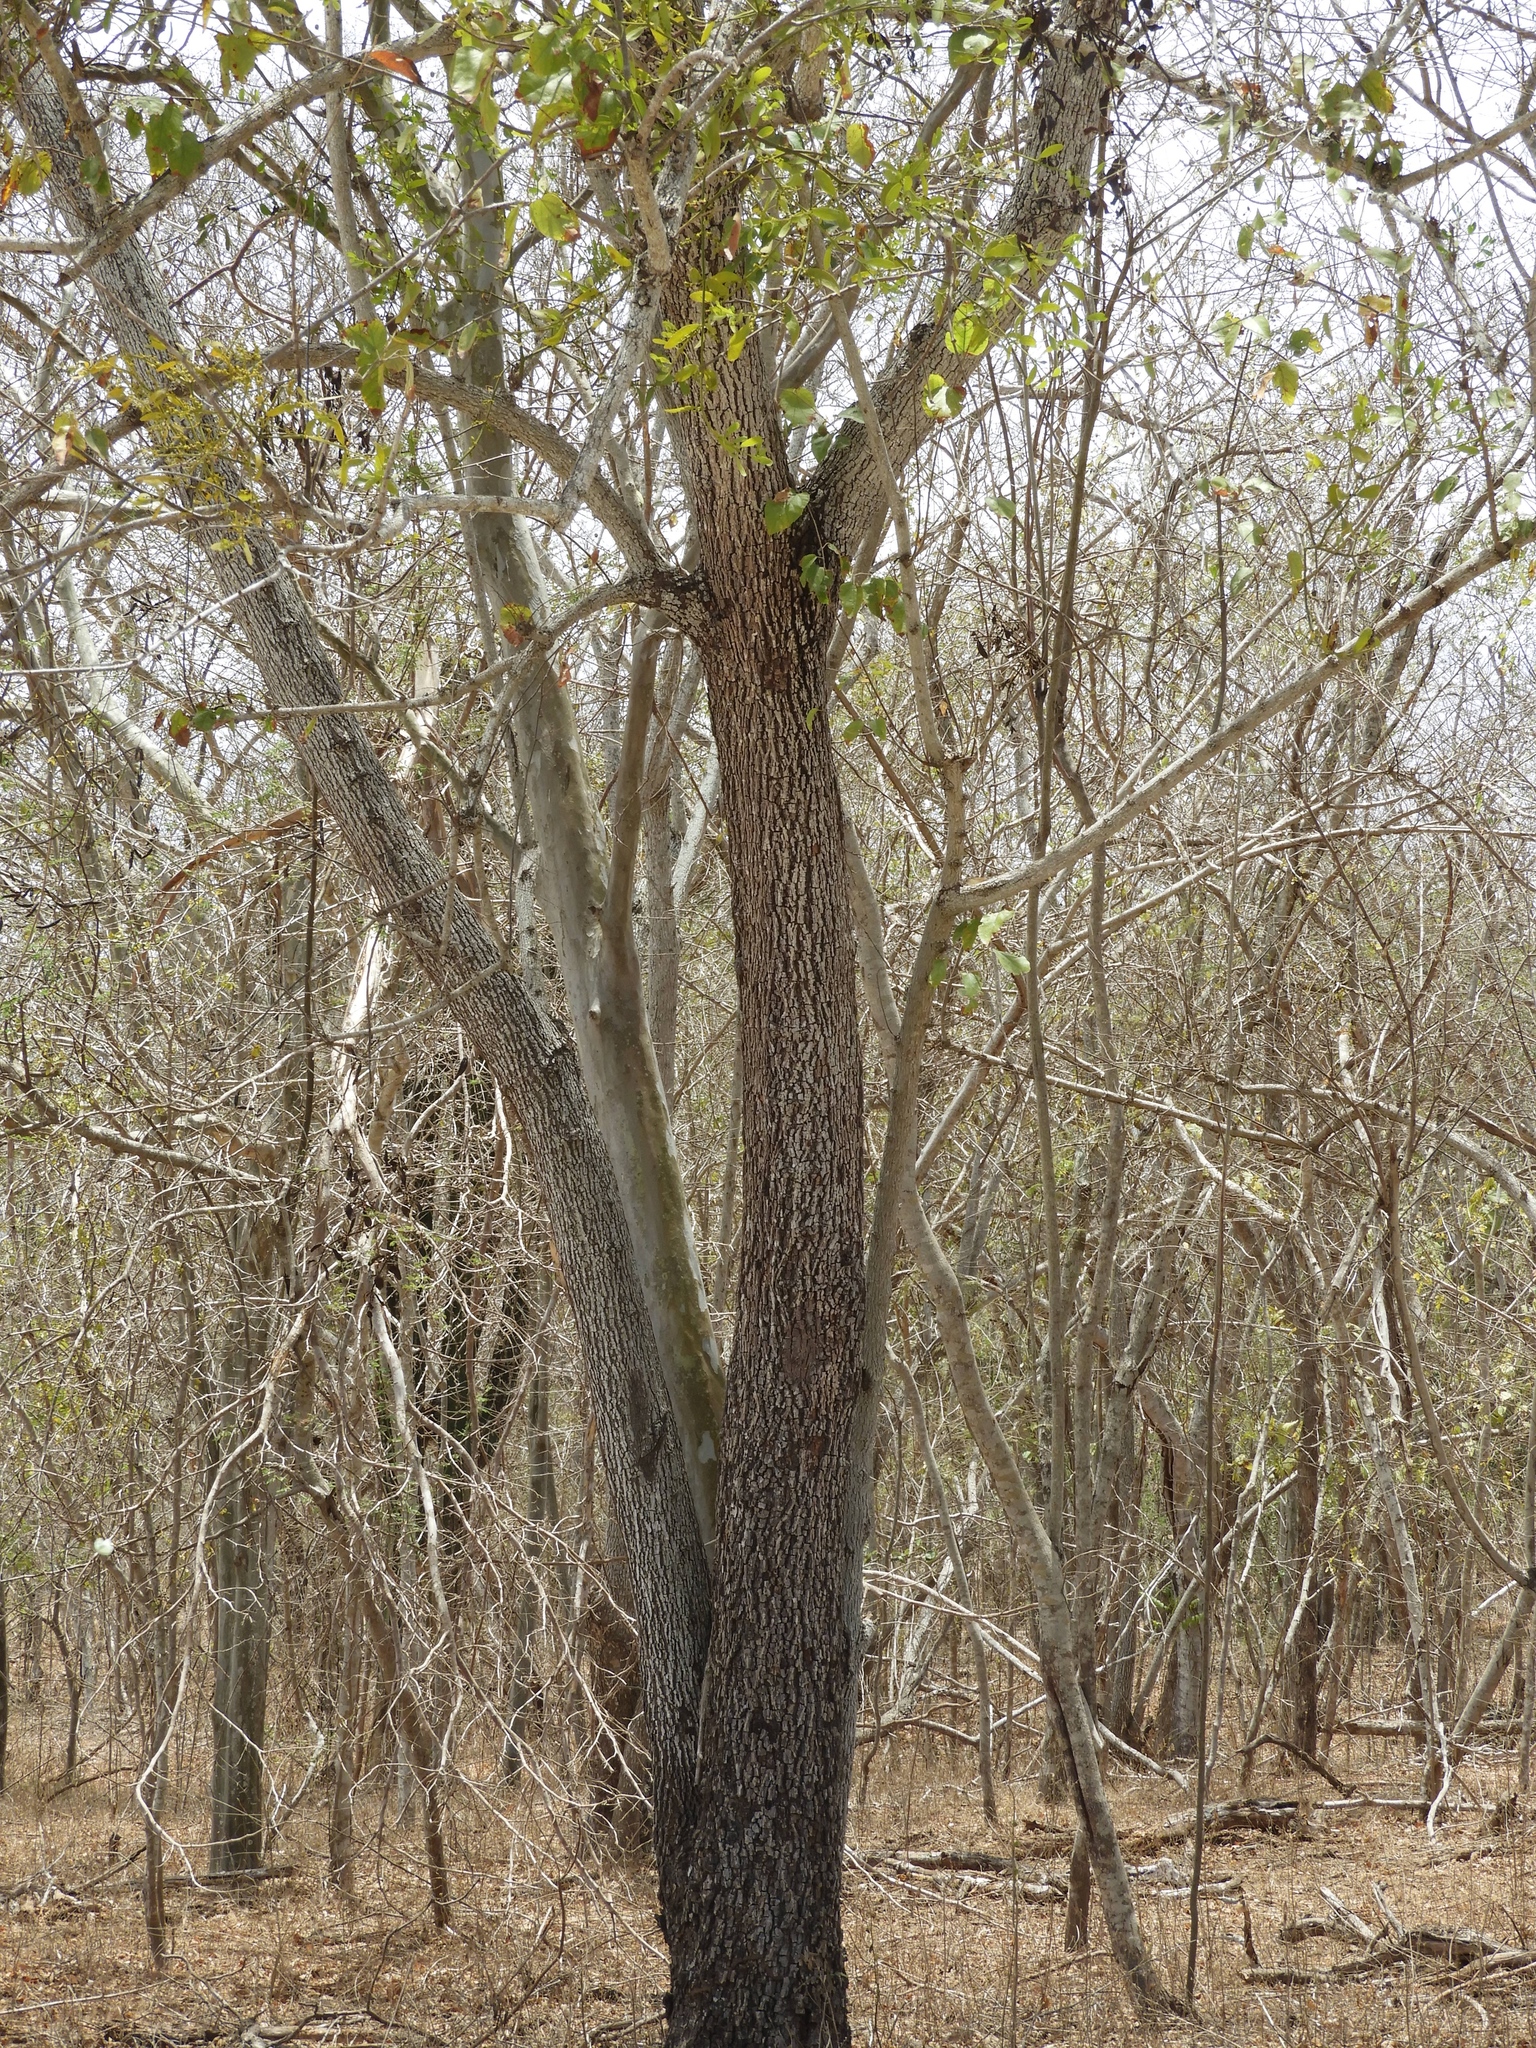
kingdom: Plantae
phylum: Tracheophyta
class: Magnoliopsida
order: Malvales
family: Malvaceae
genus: Guazuma
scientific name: Guazuma ulmifolia
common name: Bastard-cedar
